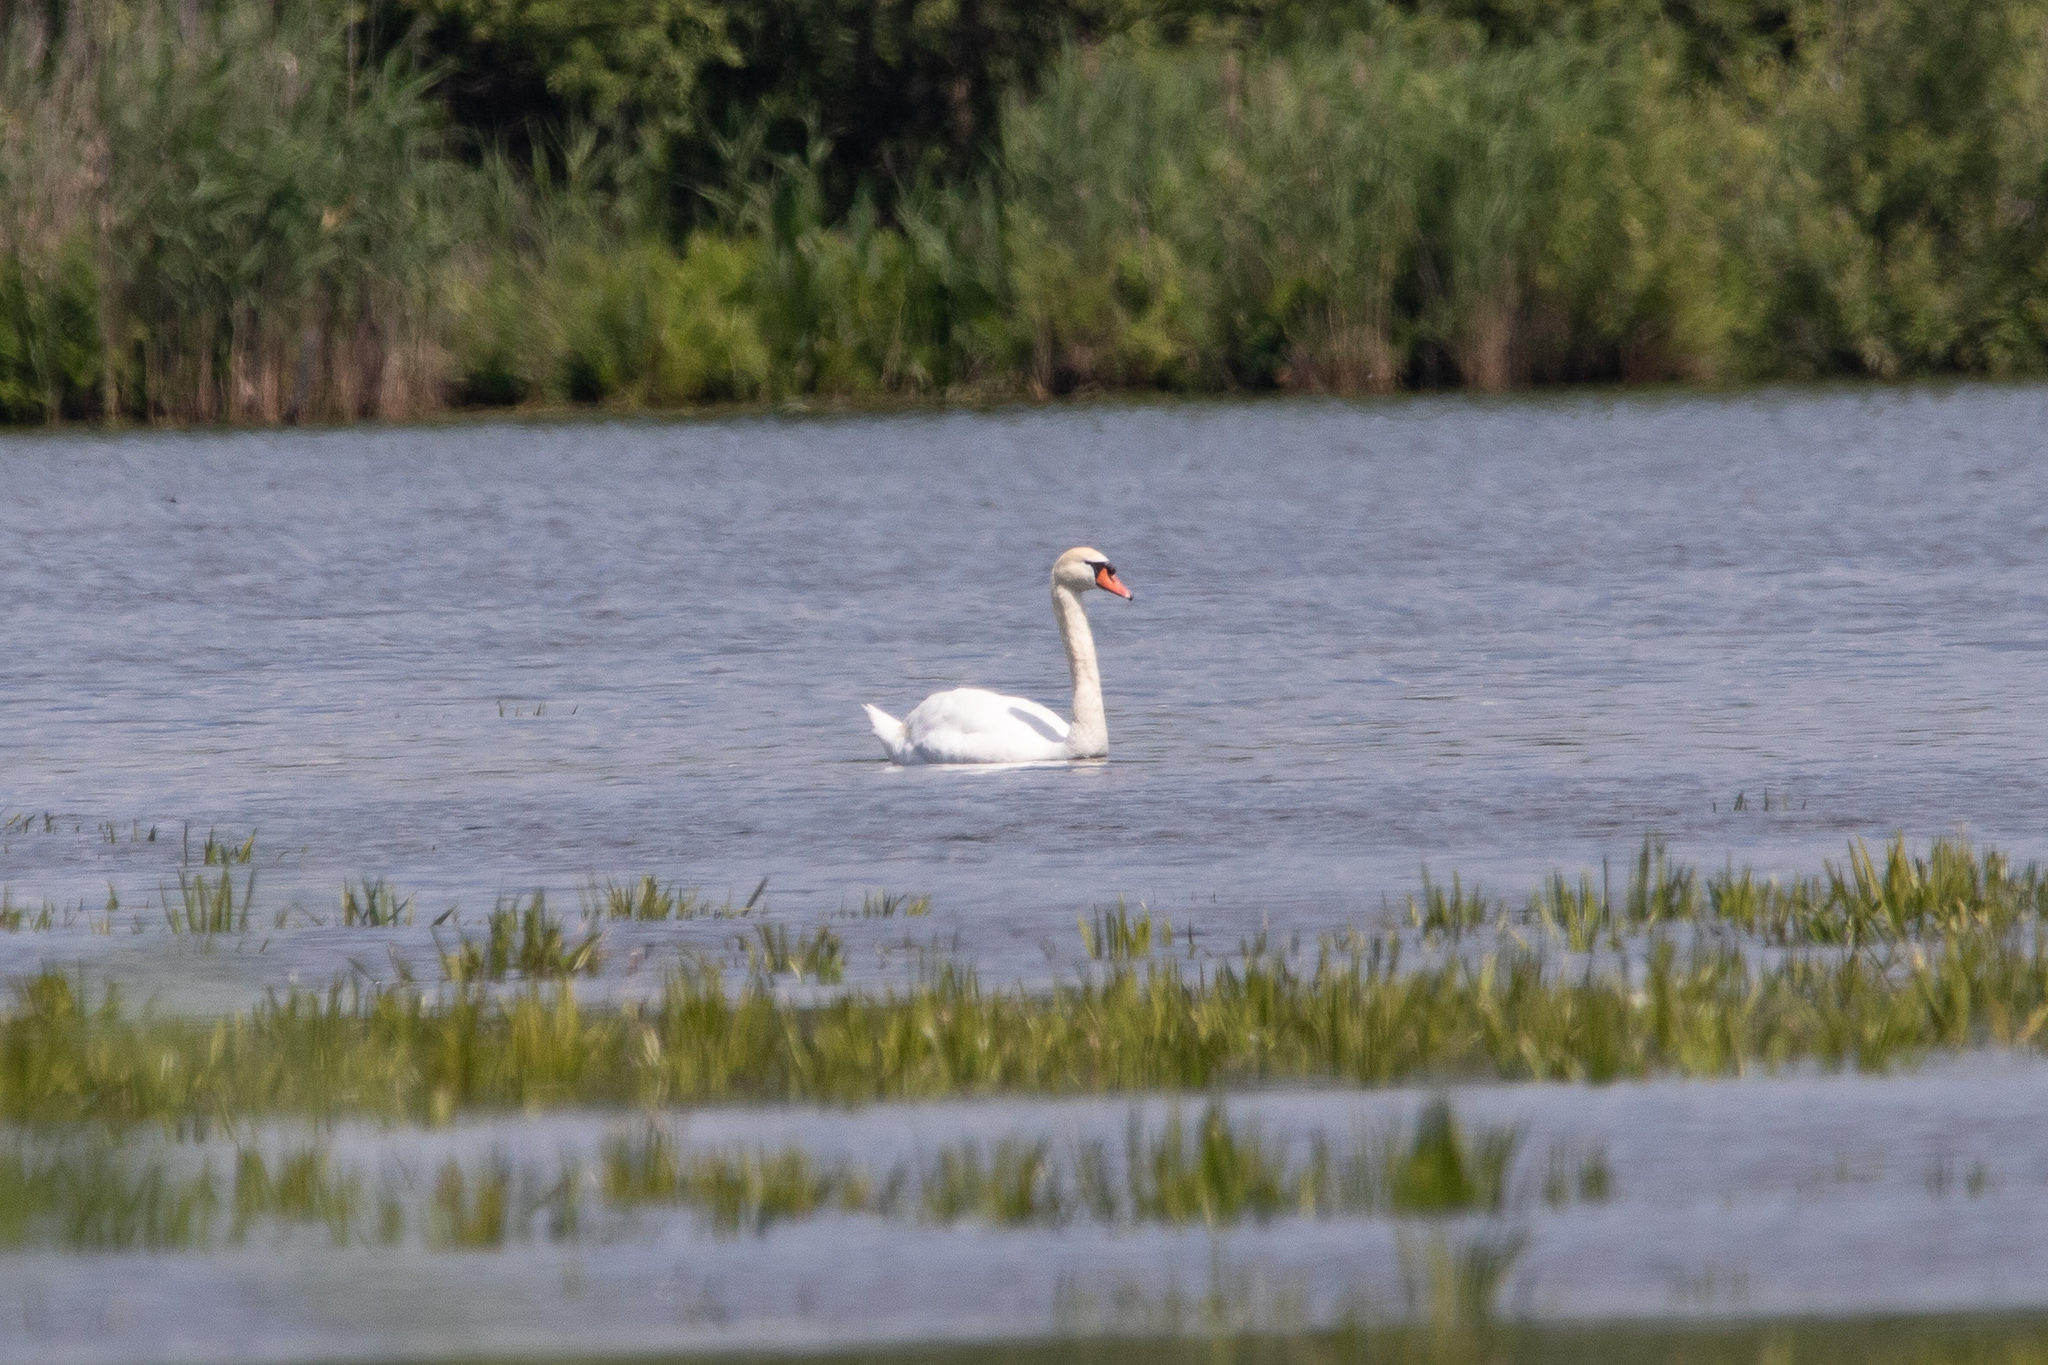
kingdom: Animalia
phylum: Chordata
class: Aves
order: Anseriformes
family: Anatidae
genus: Cygnus
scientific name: Cygnus olor
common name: Mute swan
